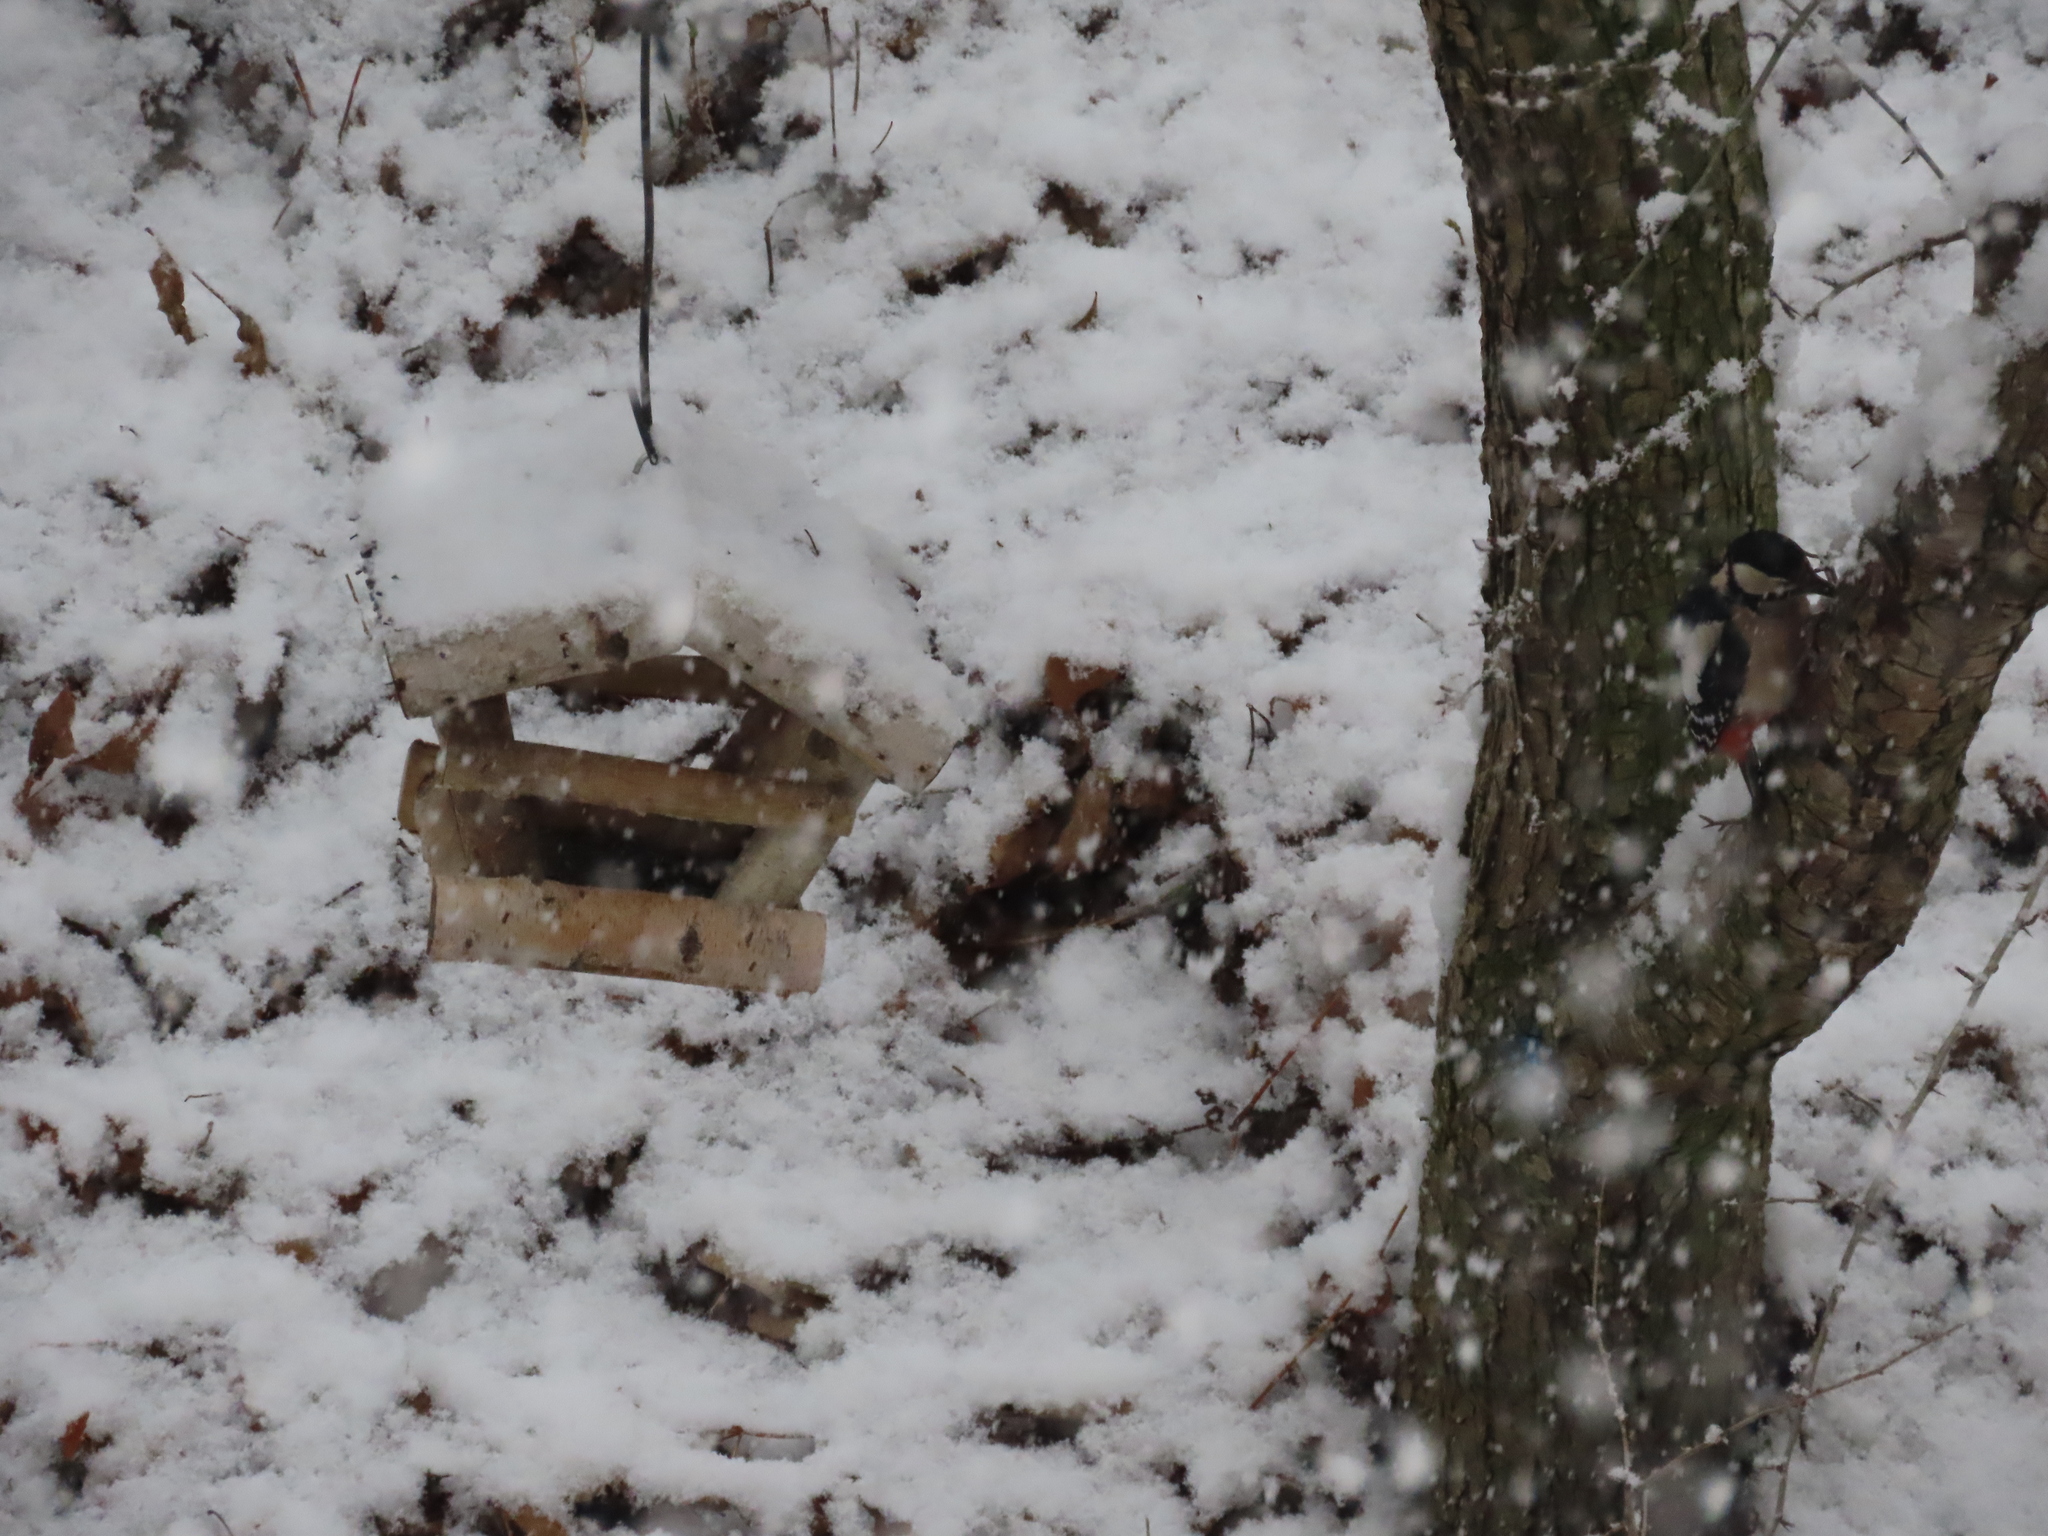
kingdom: Animalia
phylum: Chordata
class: Aves
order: Piciformes
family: Picidae
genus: Dendrocopos
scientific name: Dendrocopos major
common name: Great spotted woodpecker
